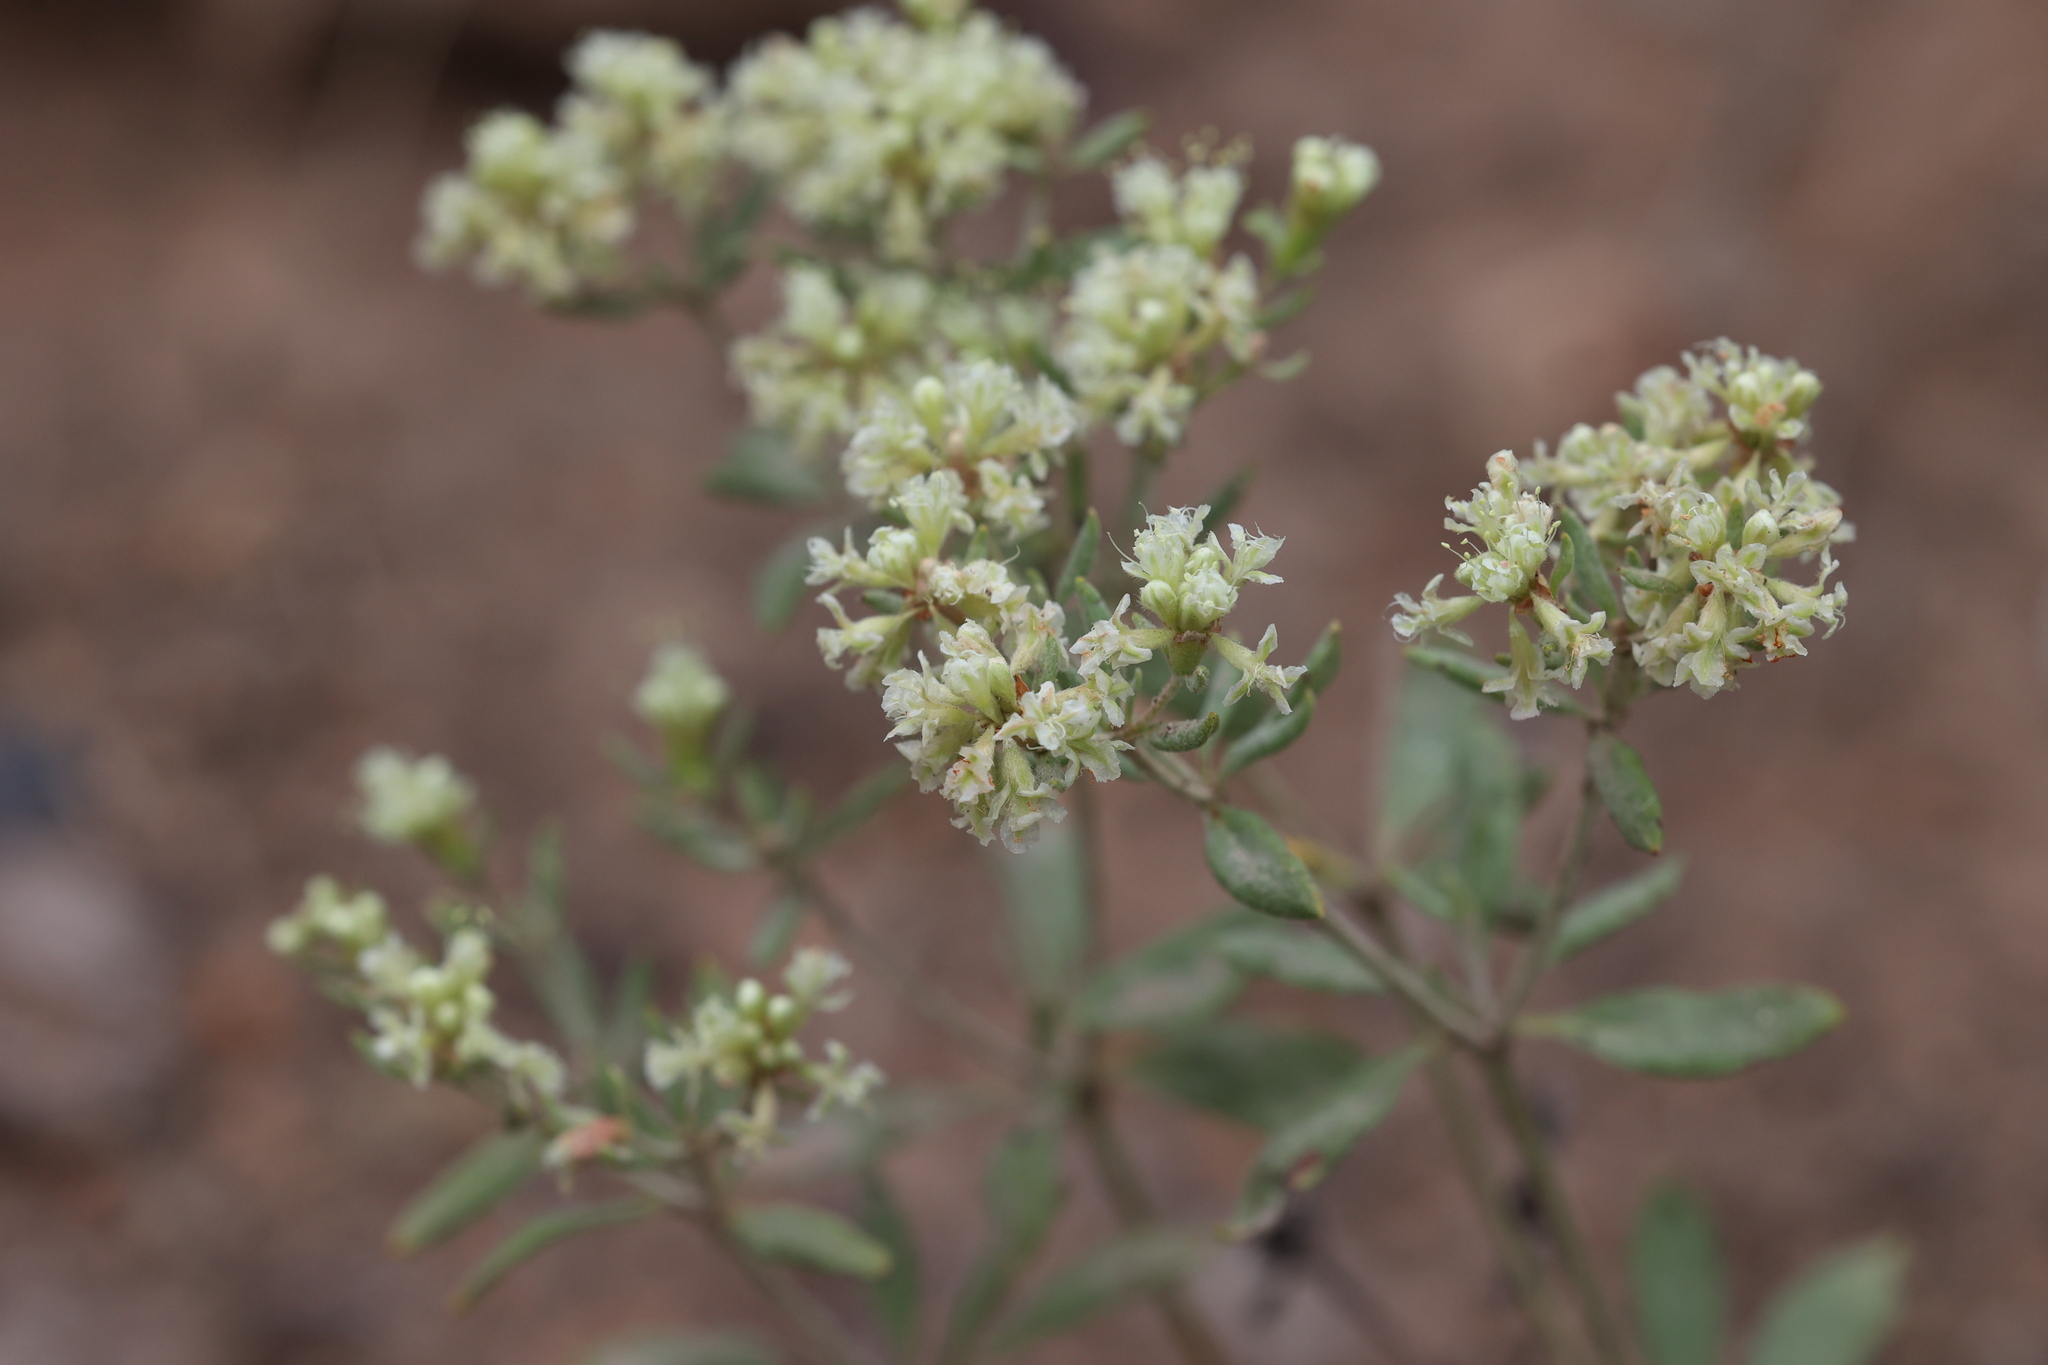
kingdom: Plantae
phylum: Tracheophyta
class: Magnoliopsida
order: Caryophyllales
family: Polygonaceae
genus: Eriogonum
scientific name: Eriogonum jamesii
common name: Antelope-sage
